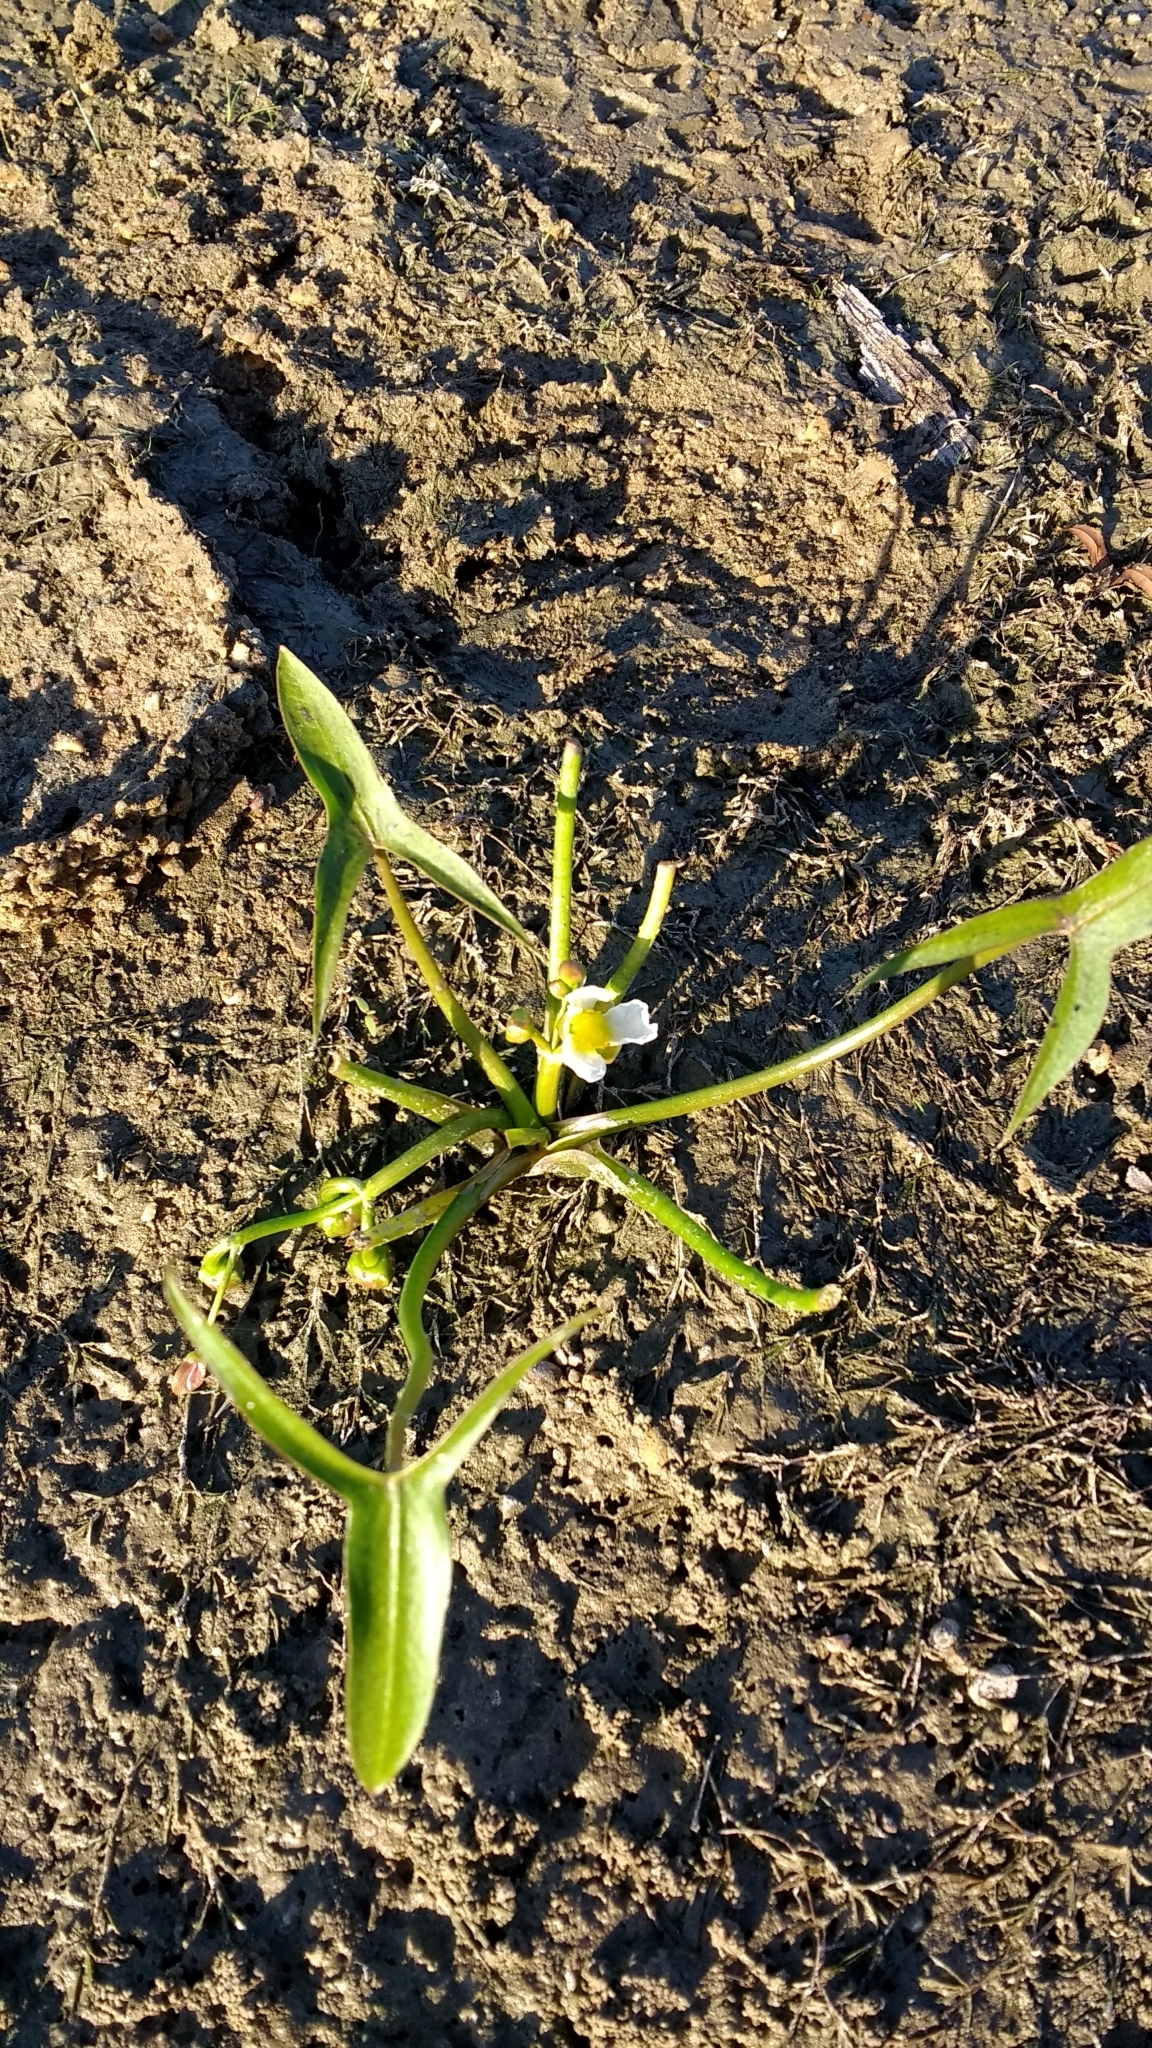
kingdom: Plantae
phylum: Tracheophyta
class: Liliopsida
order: Alismatales
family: Alismataceae
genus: Sagittaria
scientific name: Sagittaria calycina
